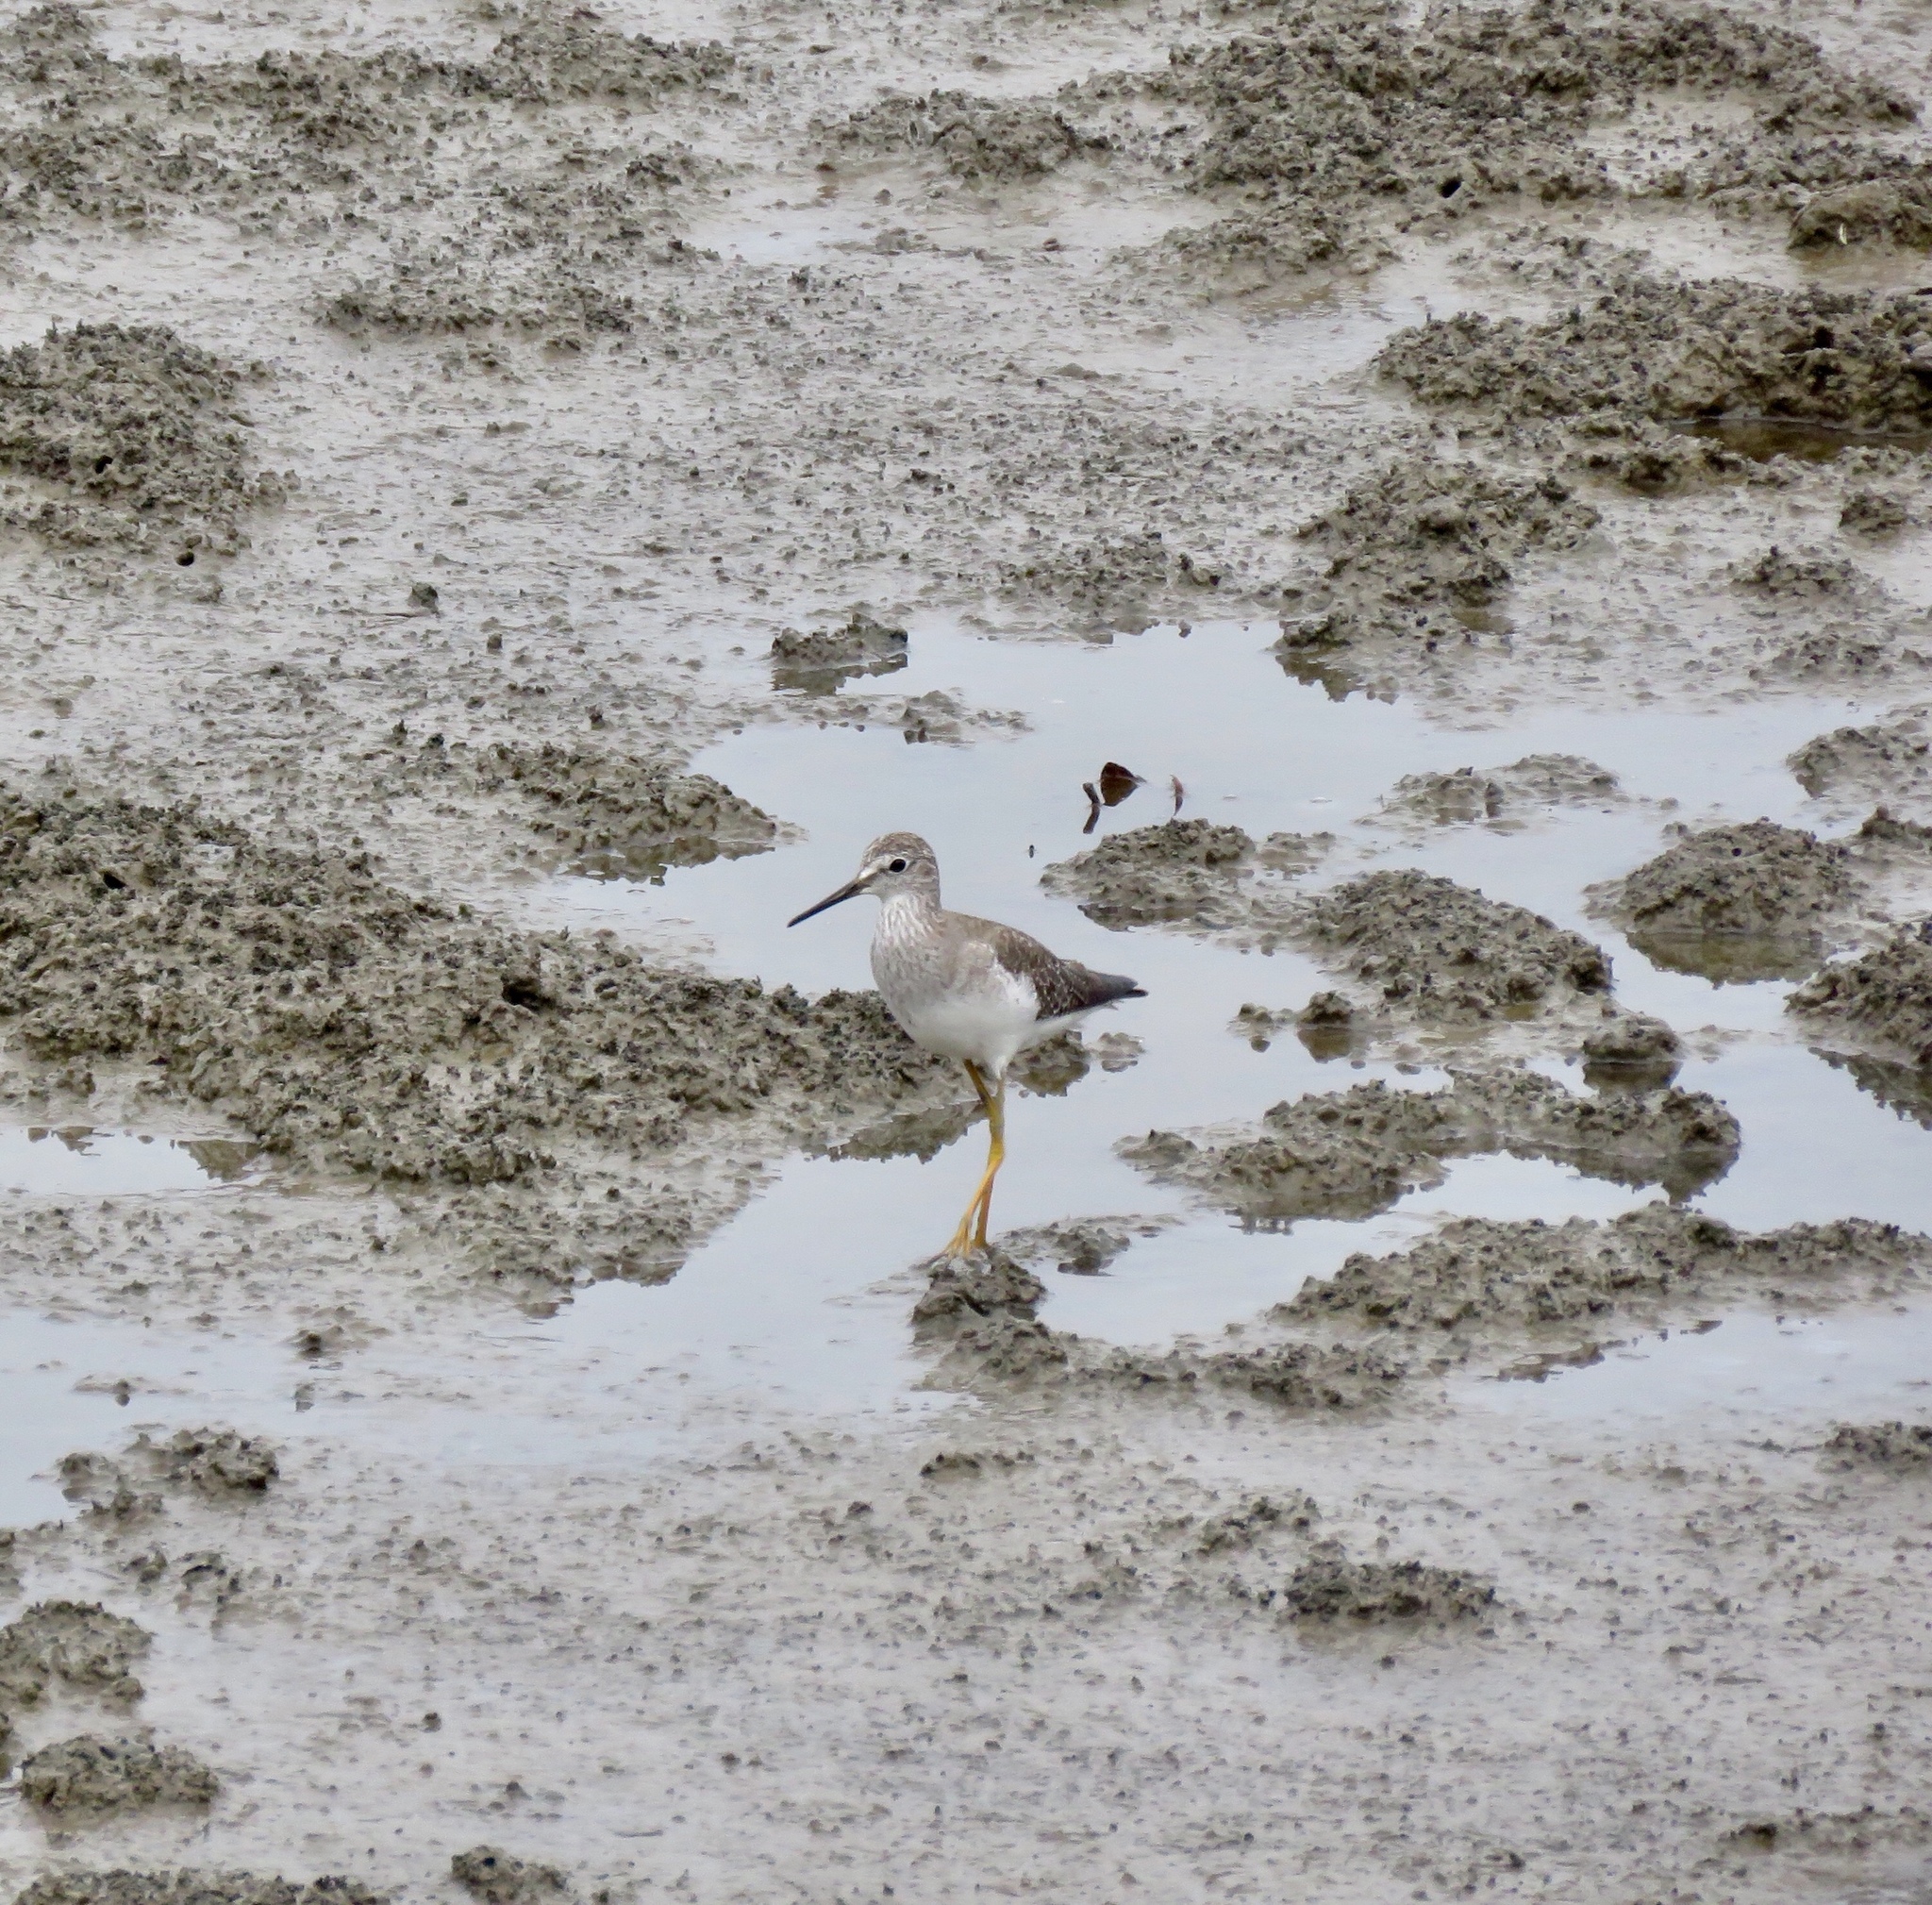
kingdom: Animalia
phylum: Chordata
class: Aves
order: Charadriiformes
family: Scolopacidae
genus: Tringa
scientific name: Tringa flavipes
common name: Lesser yellowlegs
